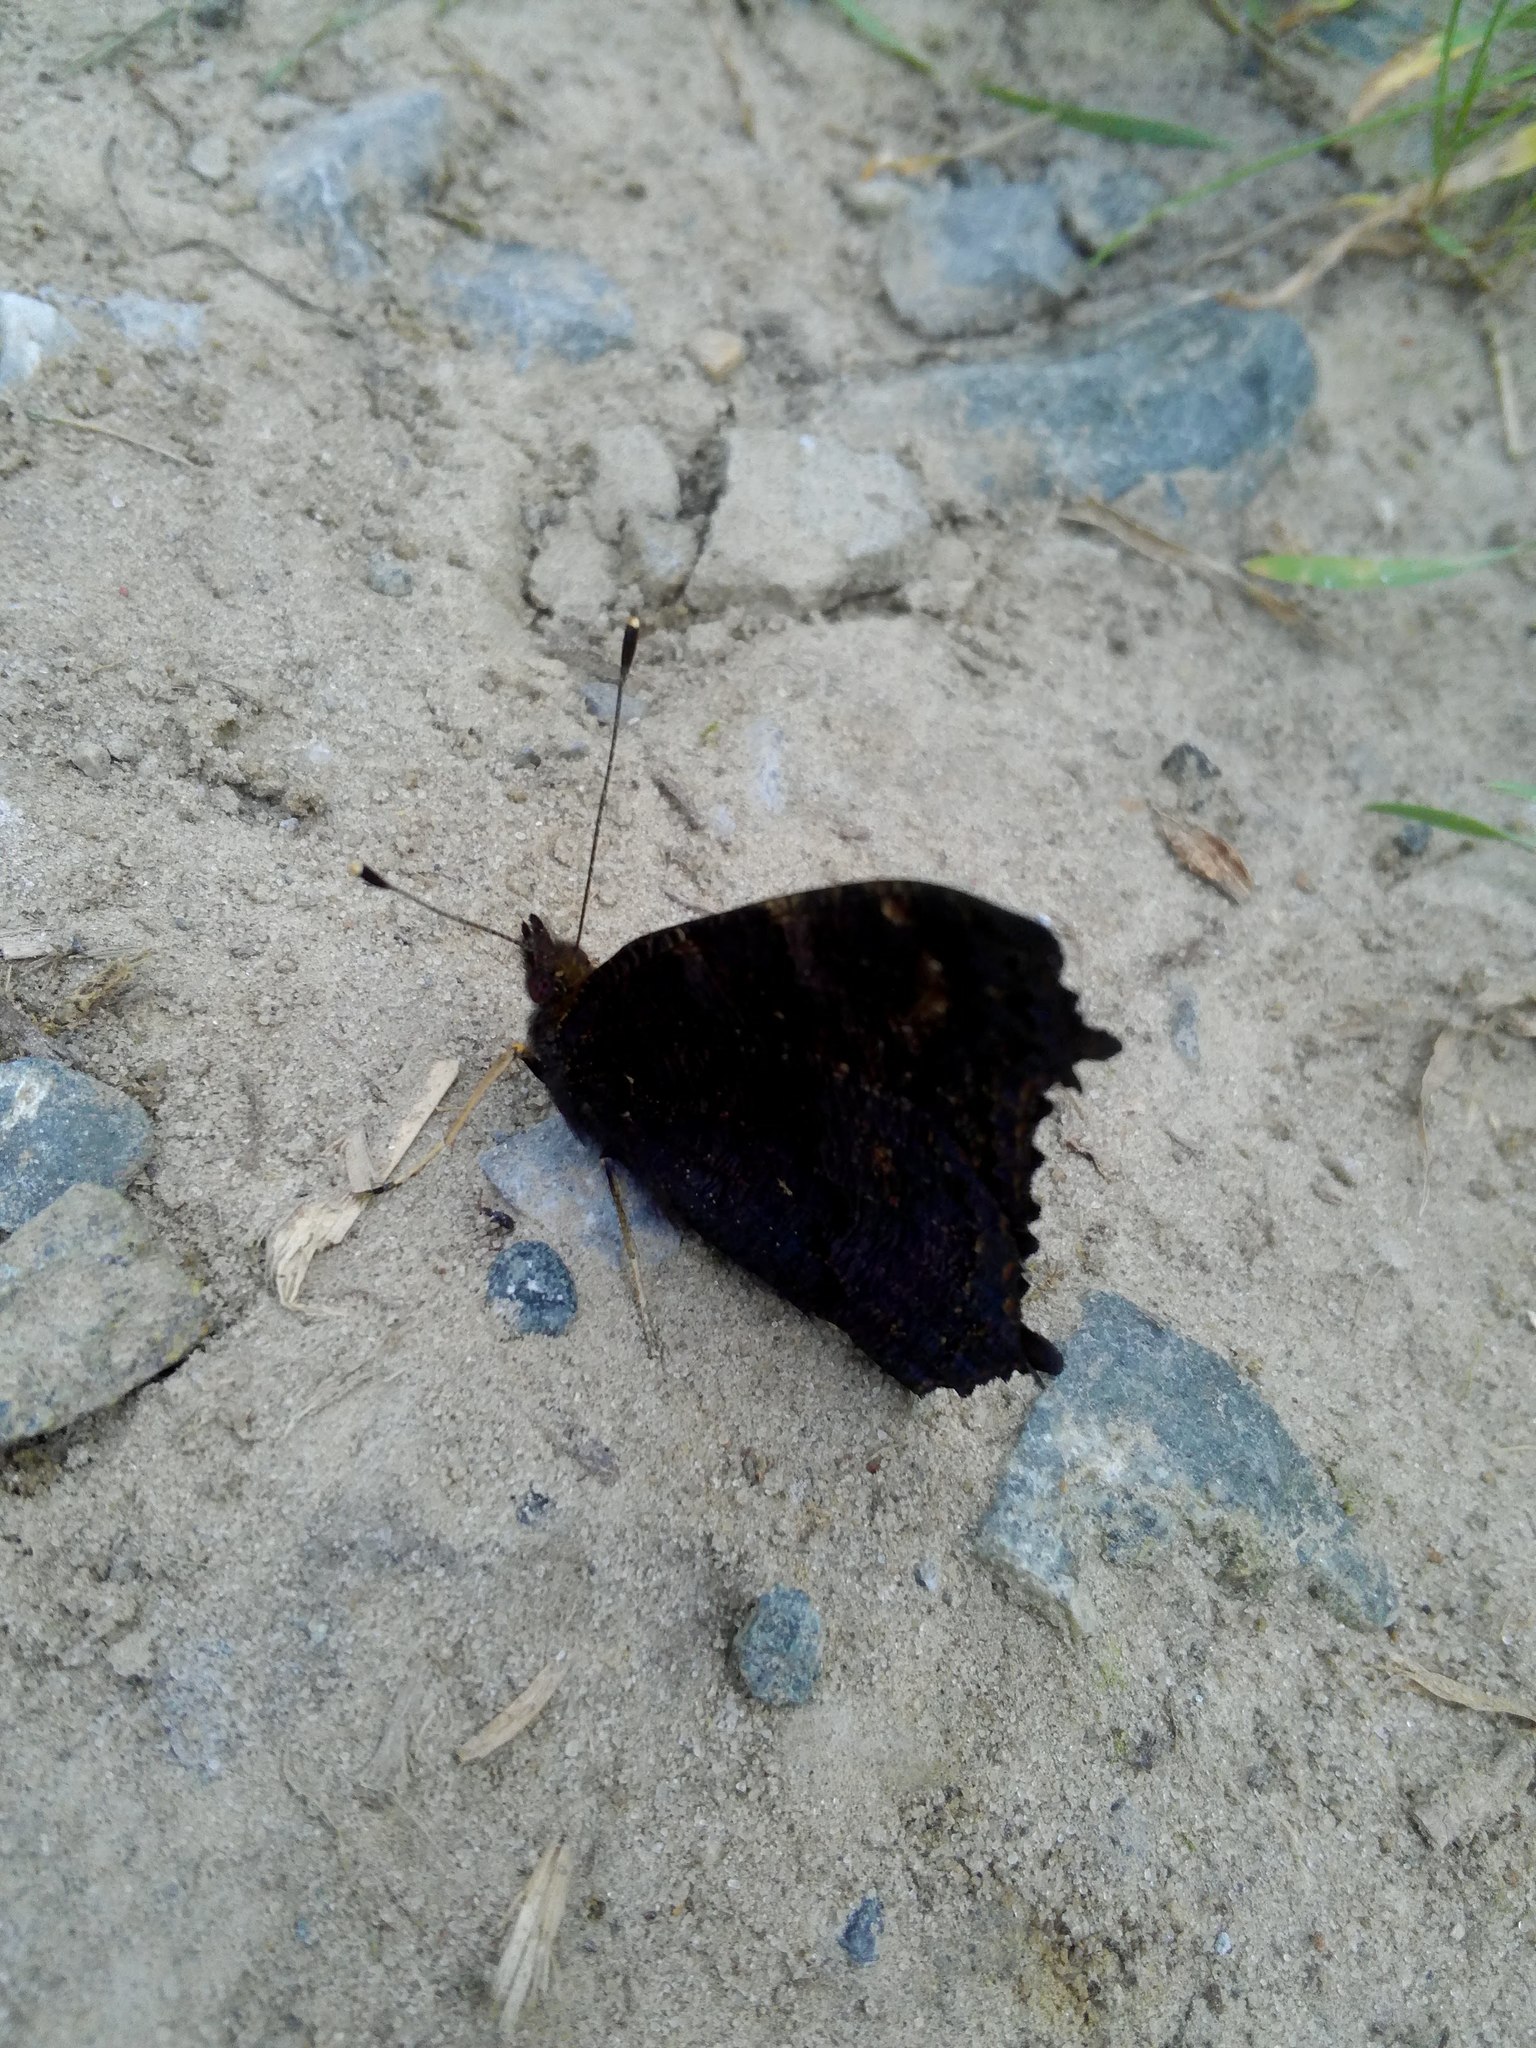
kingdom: Animalia
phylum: Arthropoda
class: Insecta
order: Lepidoptera
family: Nymphalidae
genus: Aglais
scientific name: Aglais io
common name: Peacock
